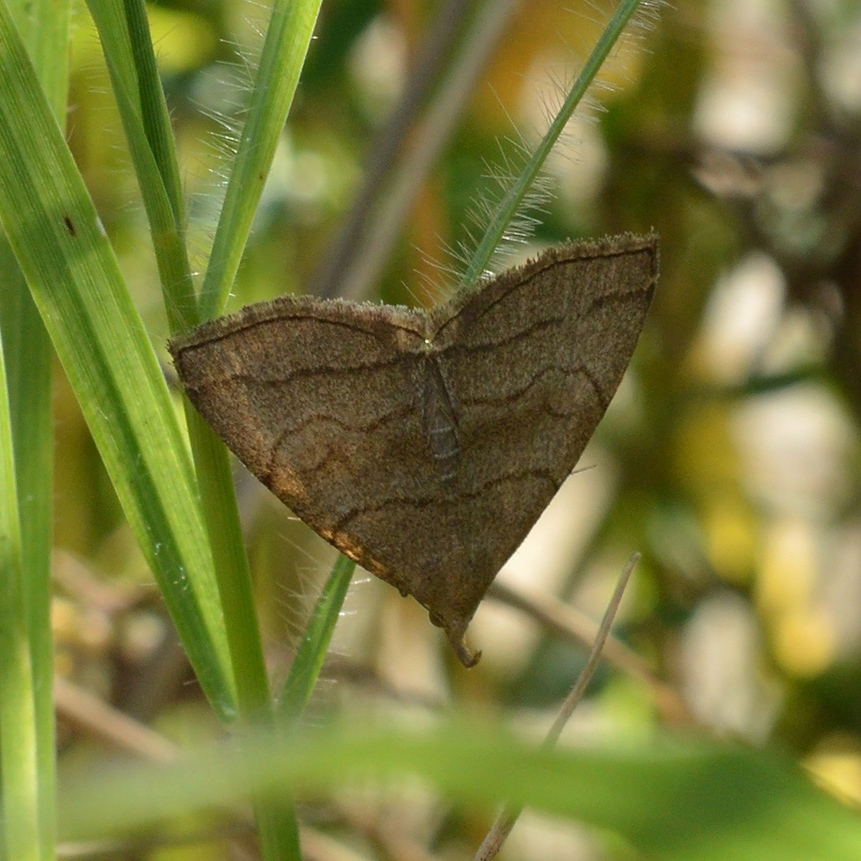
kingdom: Animalia
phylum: Arthropoda
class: Insecta
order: Lepidoptera
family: Erebidae
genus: Herminia
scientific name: Herminia tarsicrinalis
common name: Shaded fan-foot
